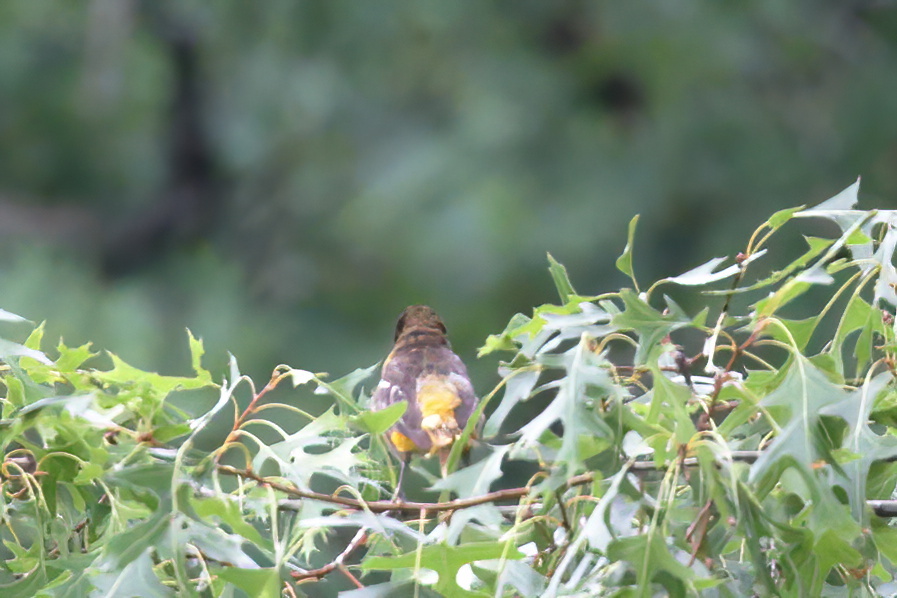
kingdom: Animalia
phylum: Chordata
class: Aves
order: Passeriformes
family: Icteridae
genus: Icterus
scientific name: Icterus galbula
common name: Baltimore oriole
